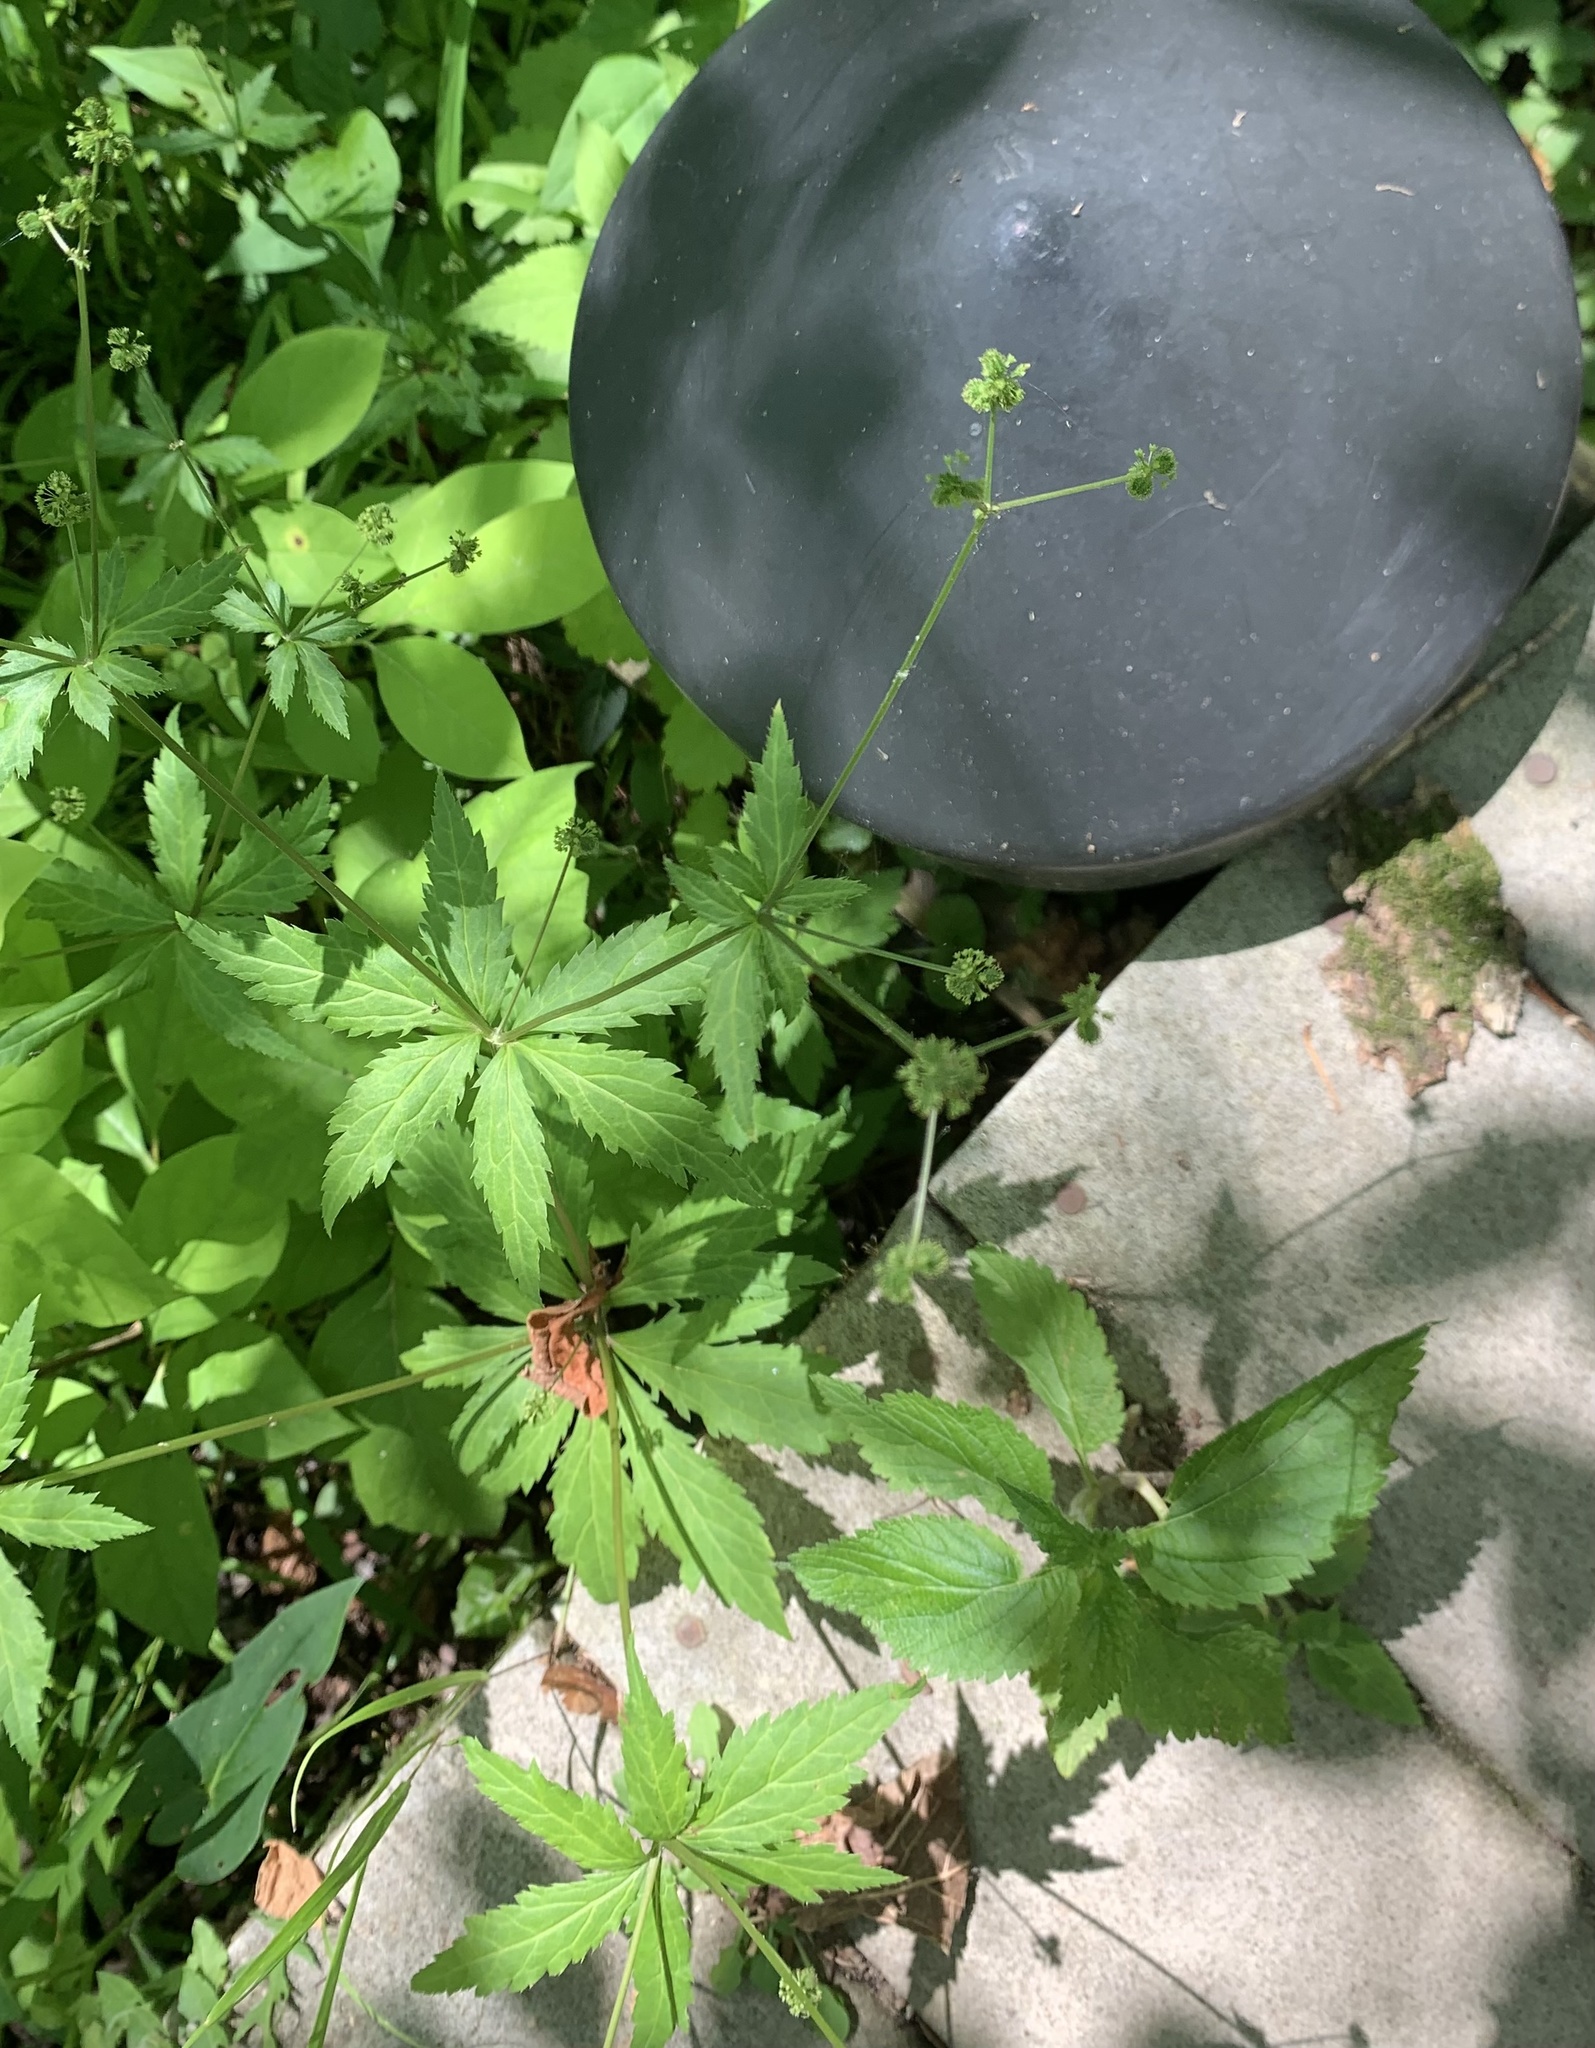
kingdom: Plantae
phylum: Tracheophyta
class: Magnoliopsida
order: Apiales
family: Apiaceae
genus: Sanicula
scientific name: Sanicula odorata
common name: Cluster sanicle
